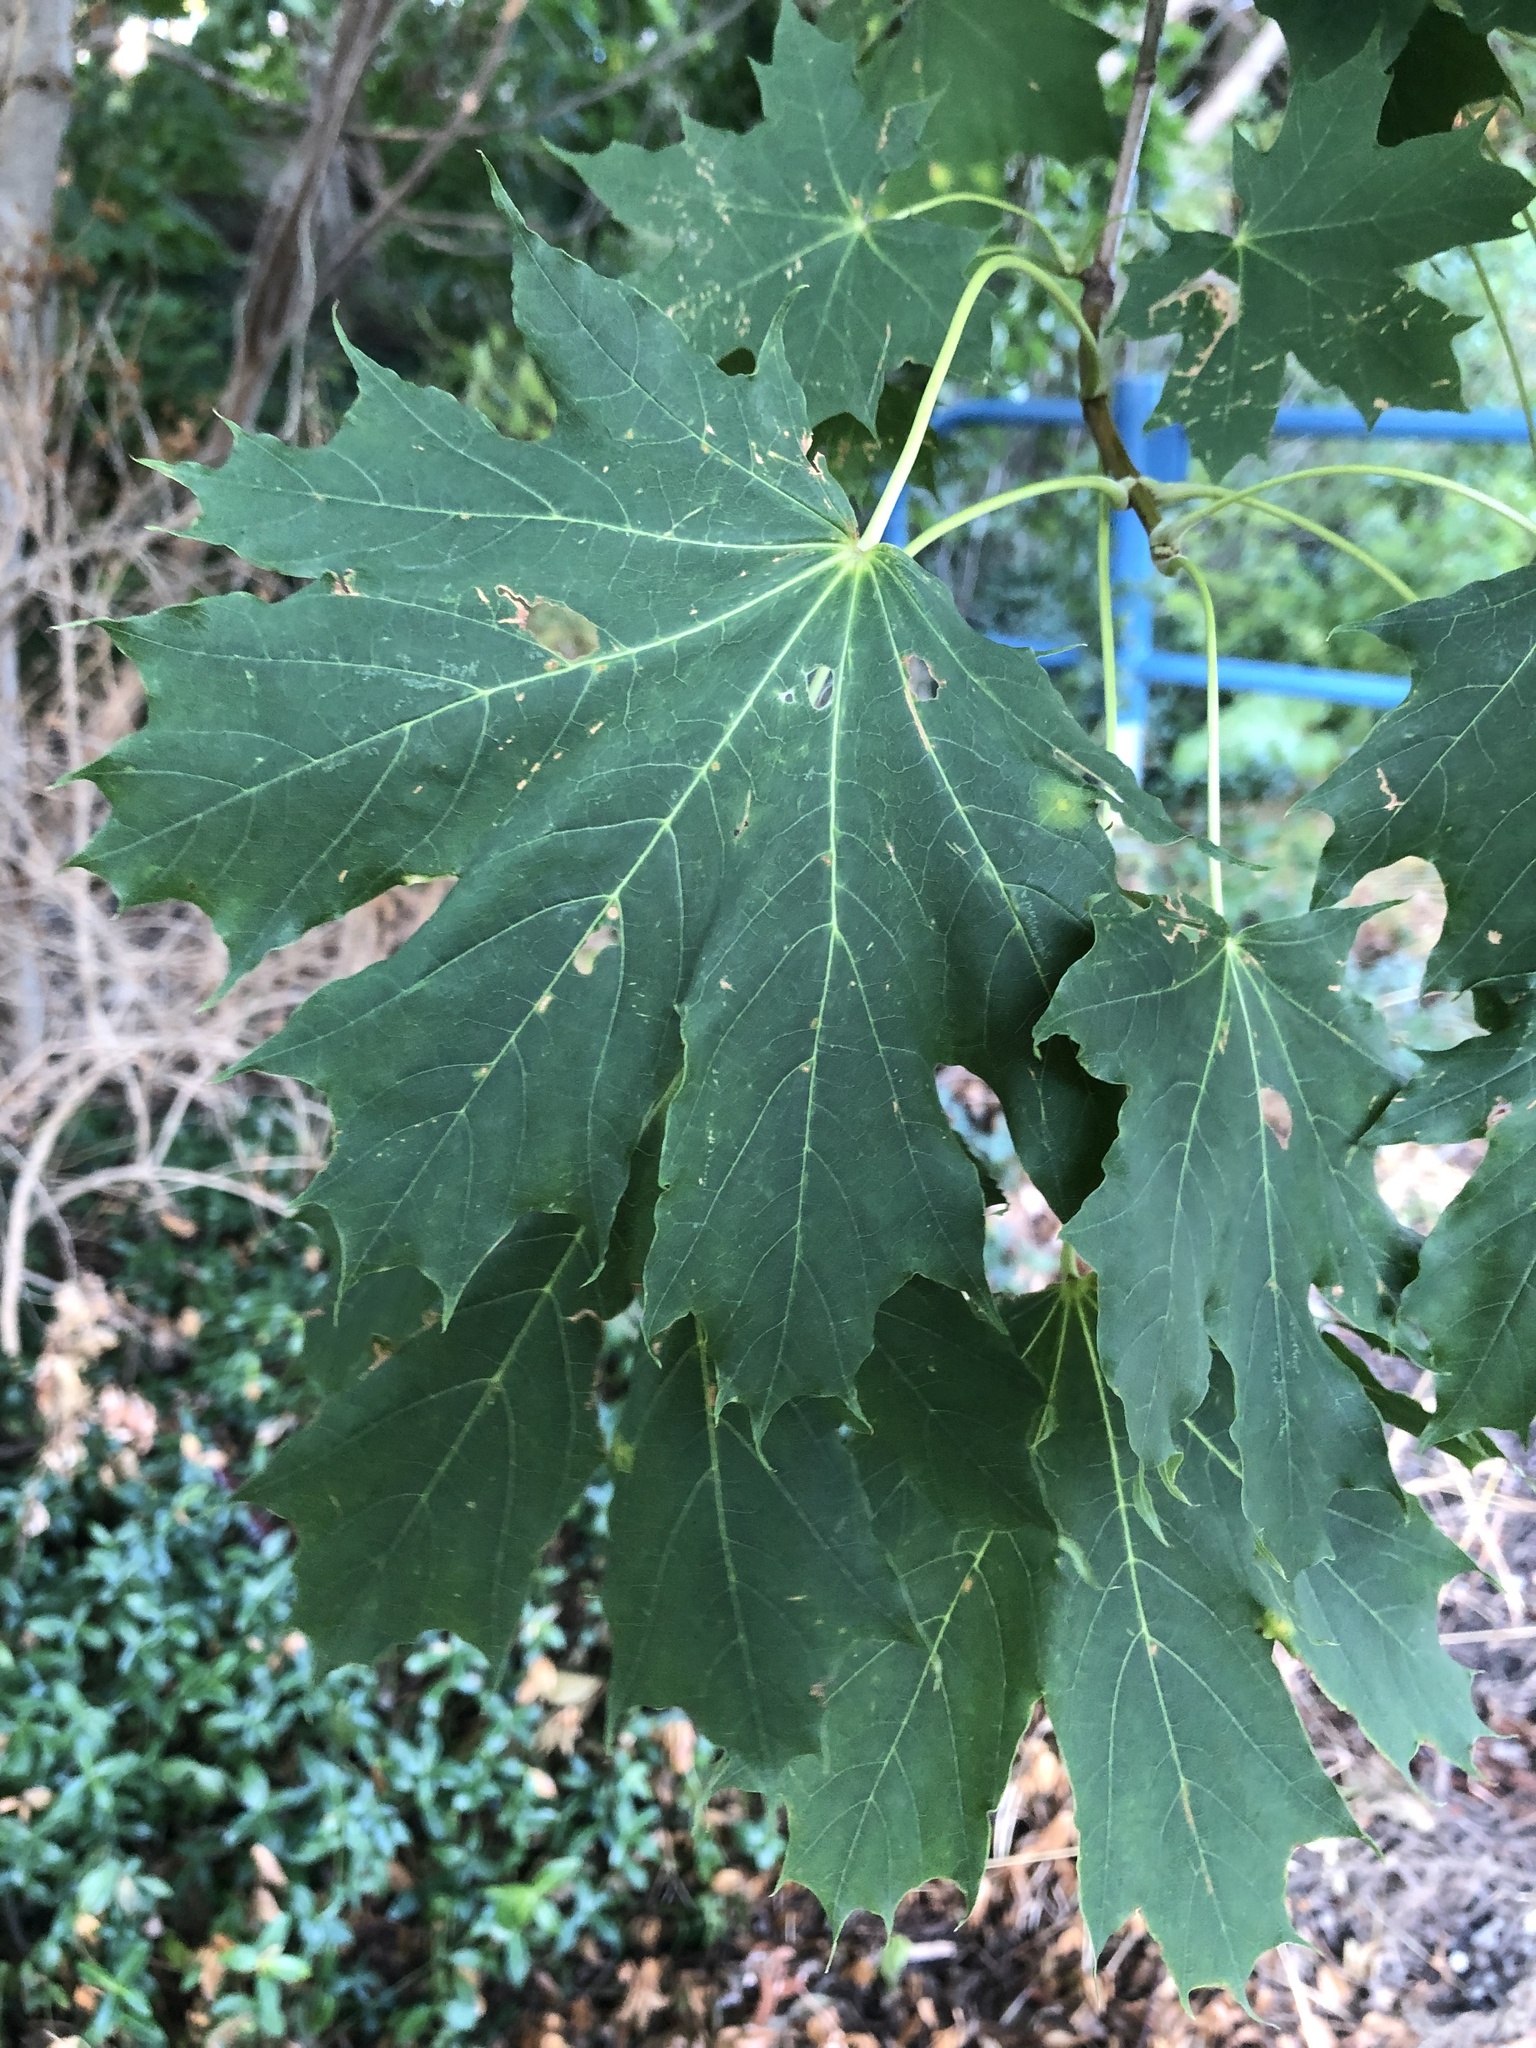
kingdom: Plantae
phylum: Tracheophyta
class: Magnoliopsida
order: Sapindales
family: Sapindaceae
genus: Acer
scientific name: Acer platanoides
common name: Norway maple
